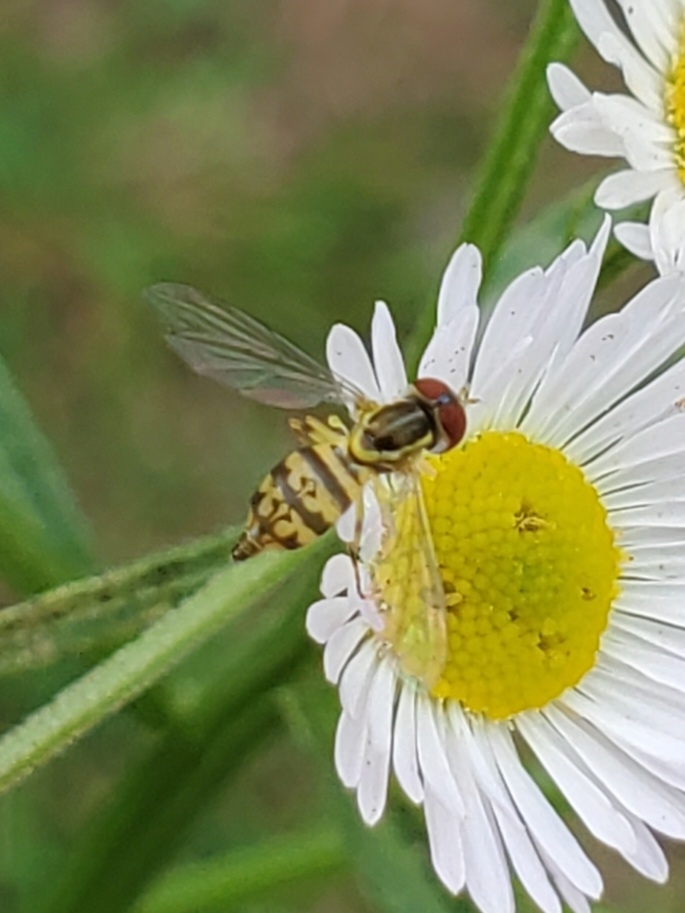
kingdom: Animalia
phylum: Arthropoda
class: Insecta
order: Diptera
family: Syrphidae
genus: Toxomerus
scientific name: Toxomerus geminatus
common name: Eastern calligrapher
